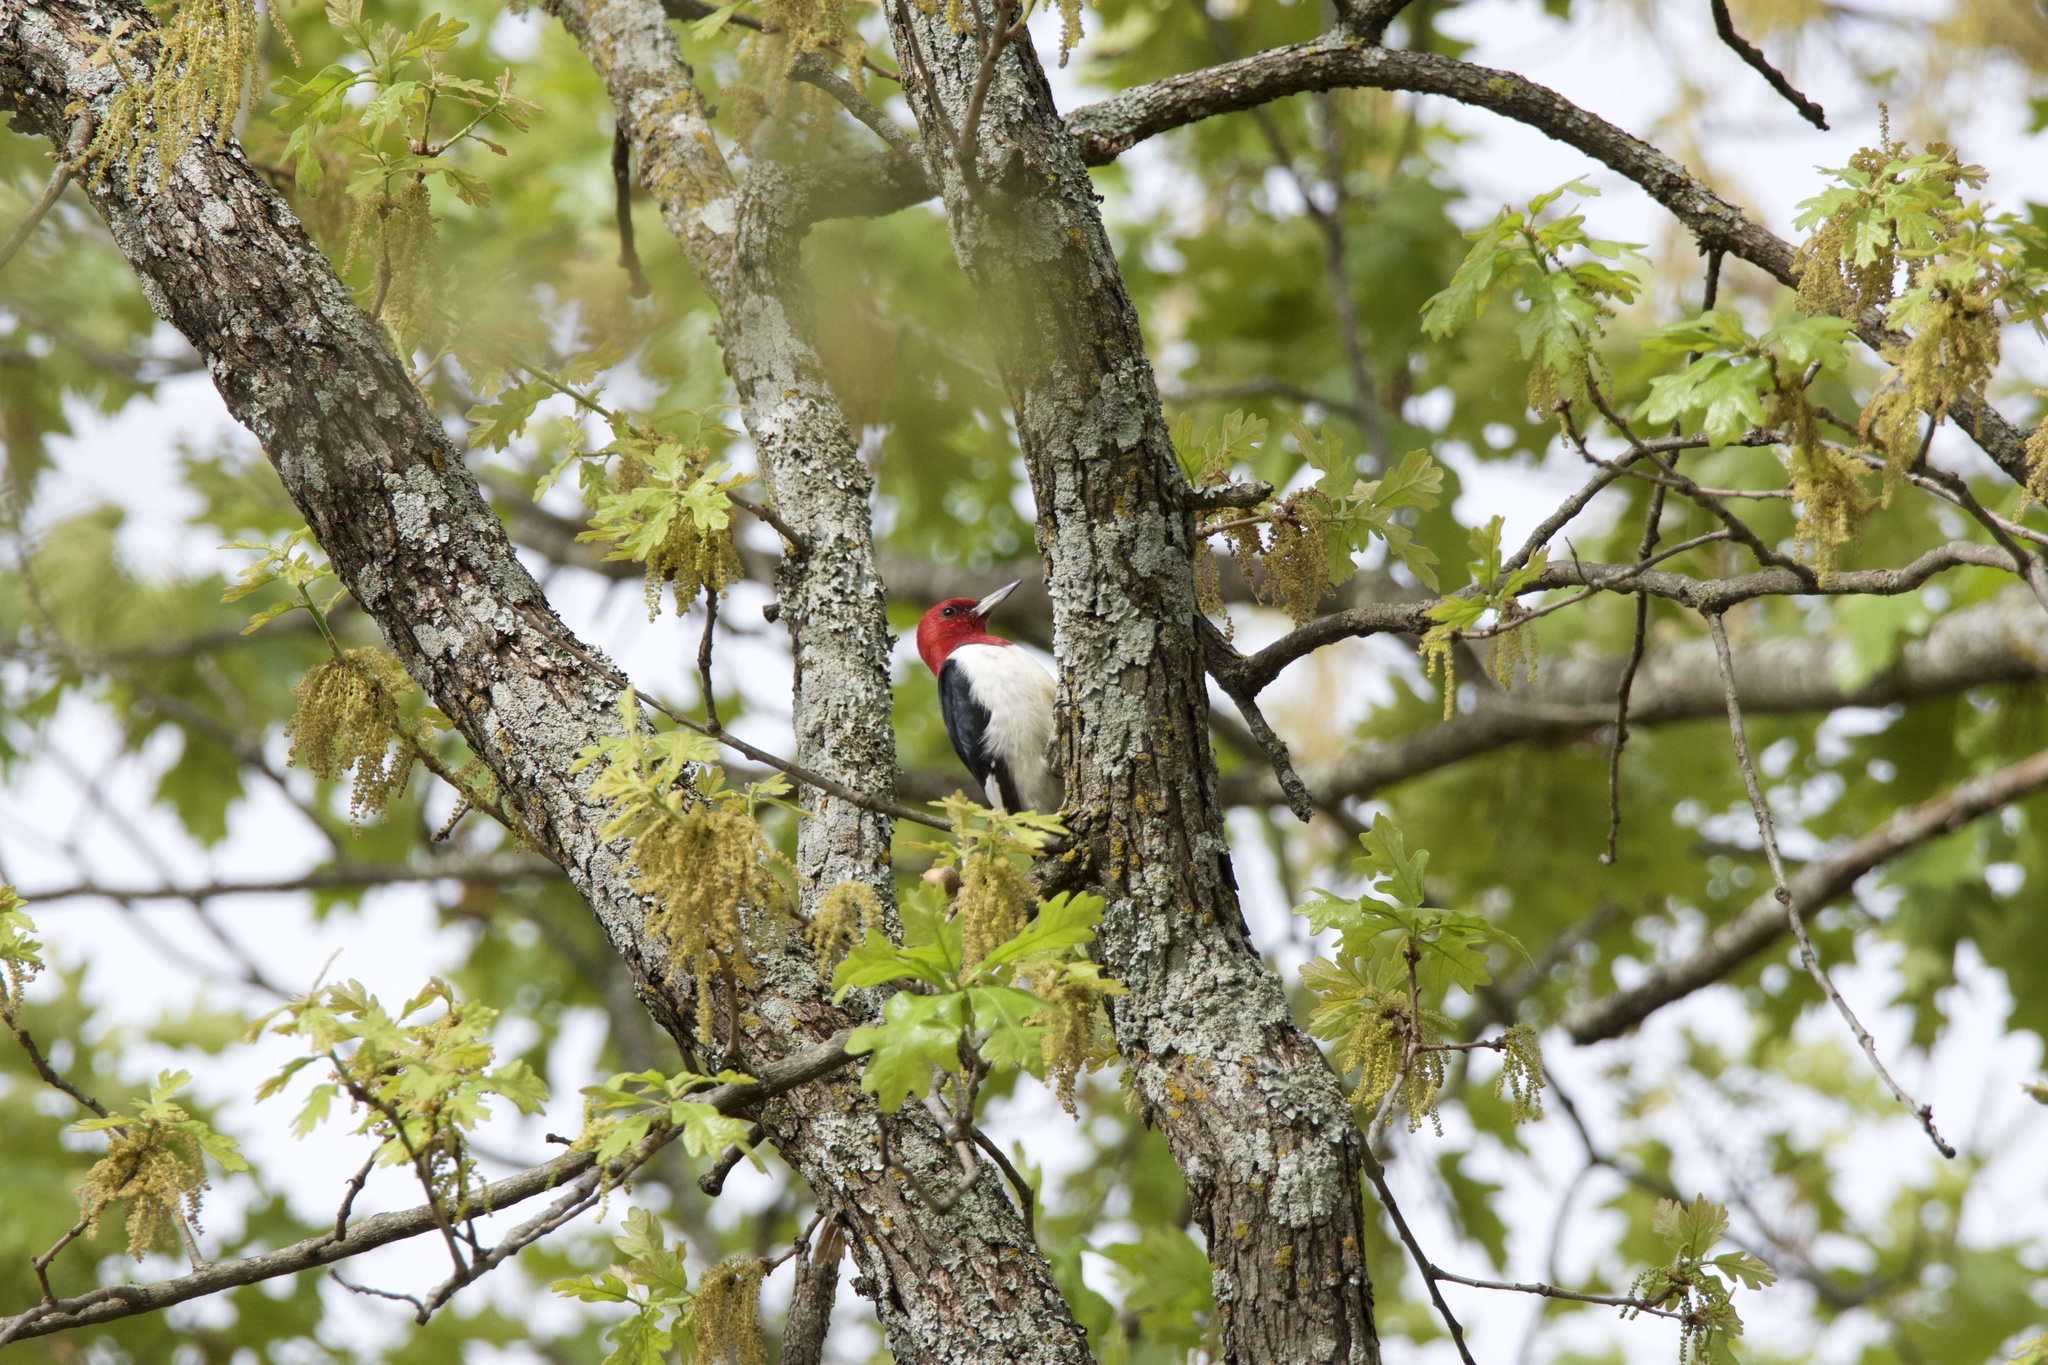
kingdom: Animalia
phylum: Chordata
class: Aves
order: Piciformes
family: Picidae
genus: Melanerpes
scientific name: Melanerpes erythrocephalus
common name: Red-headed woodpecker
